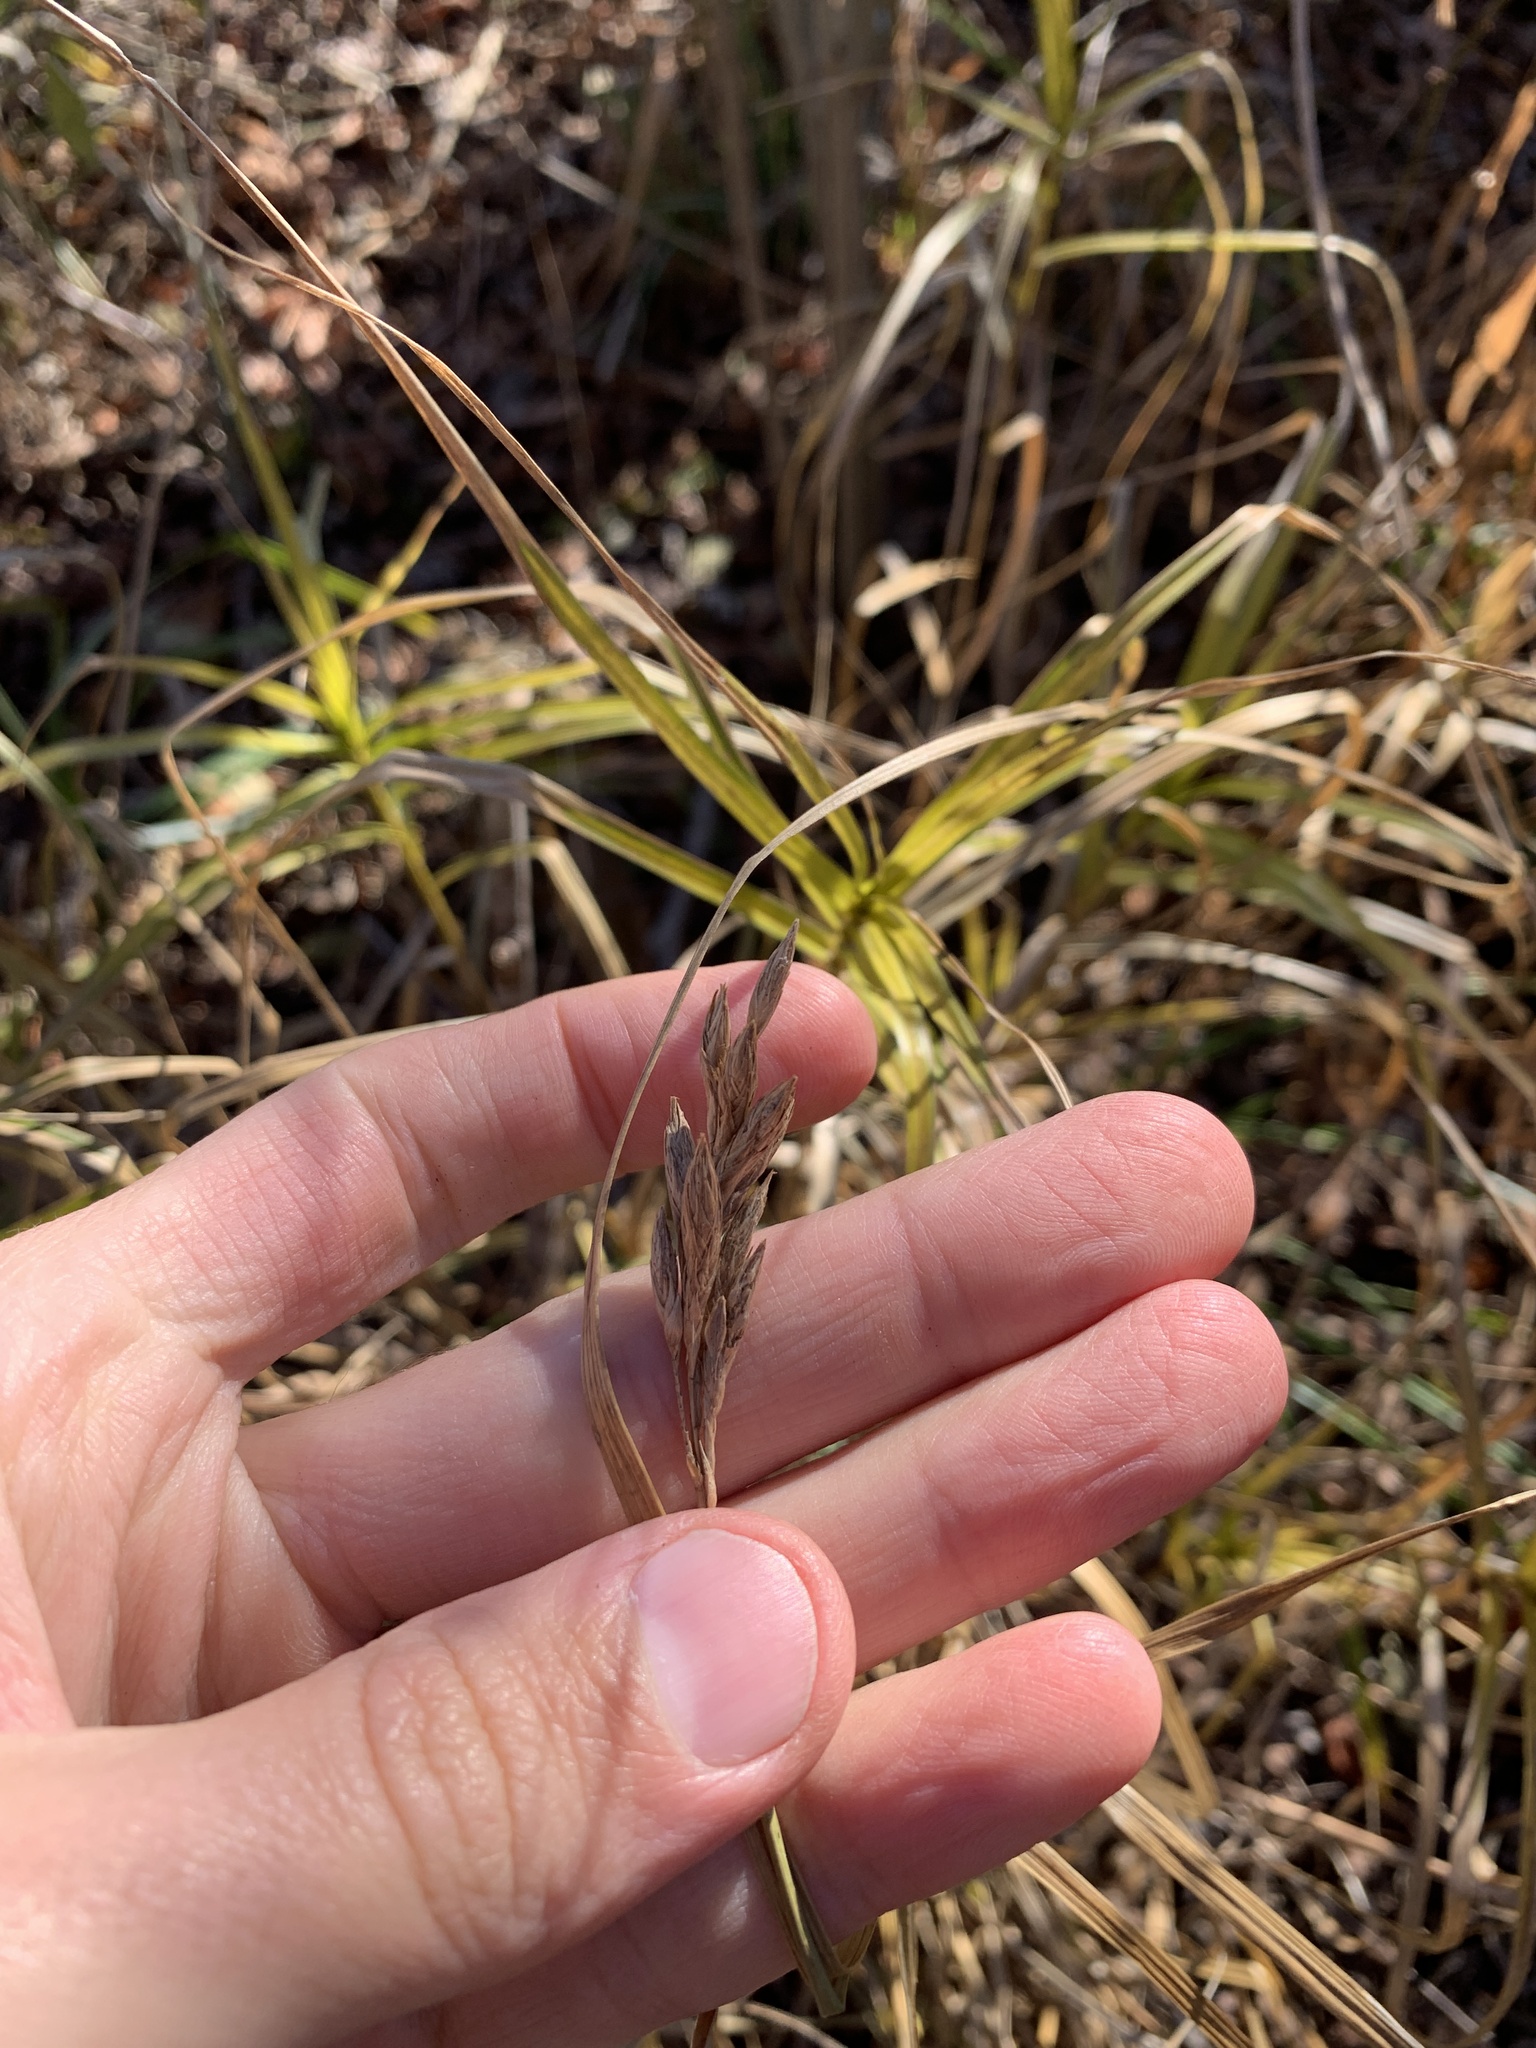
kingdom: Plantae
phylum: Tracheophyta
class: Liliopsida
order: Poales
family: Cyperaceae
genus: Carex
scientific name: Carex muskingumensis
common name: Muskingum sedge
